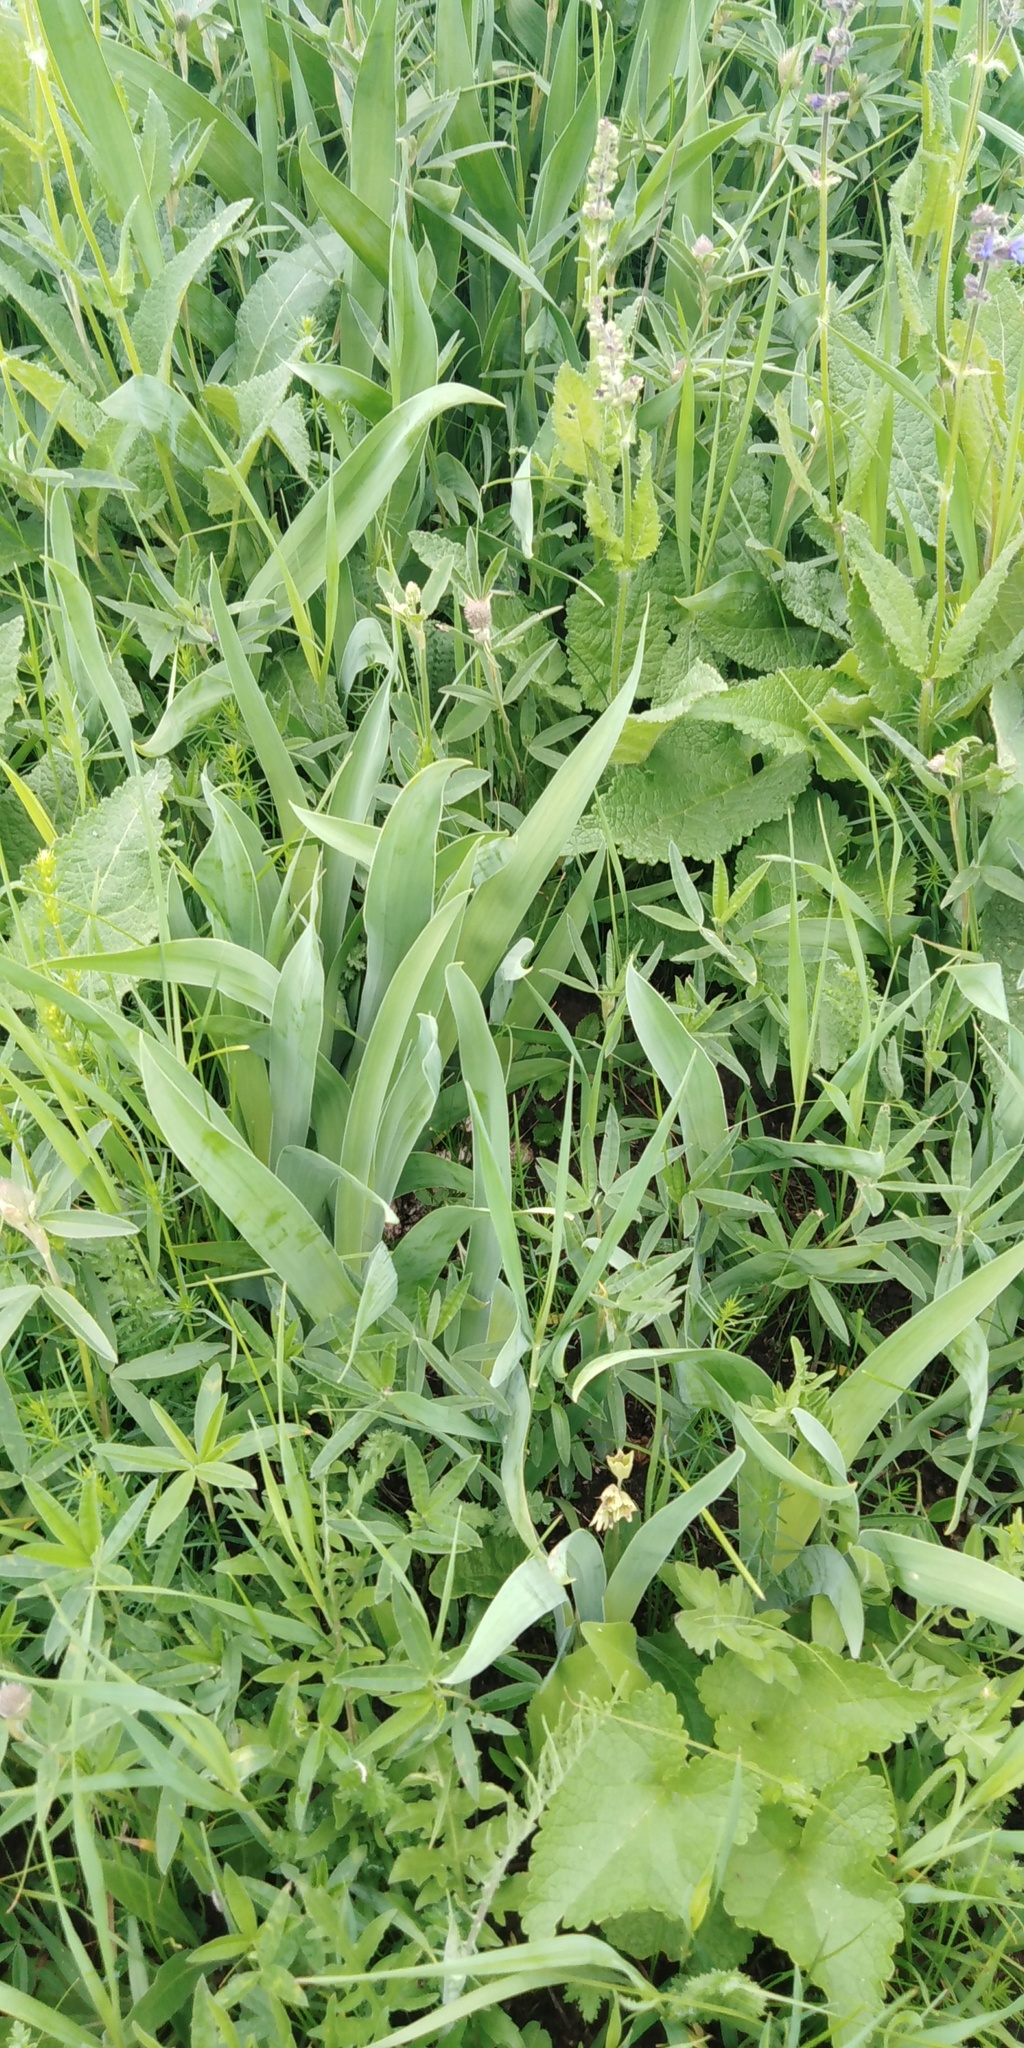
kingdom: Plantae
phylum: Tracheophyta
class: Liliopsida
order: Asparagales
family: Iridaceae
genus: Iris
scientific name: Iris aphylla
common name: Stool iris
